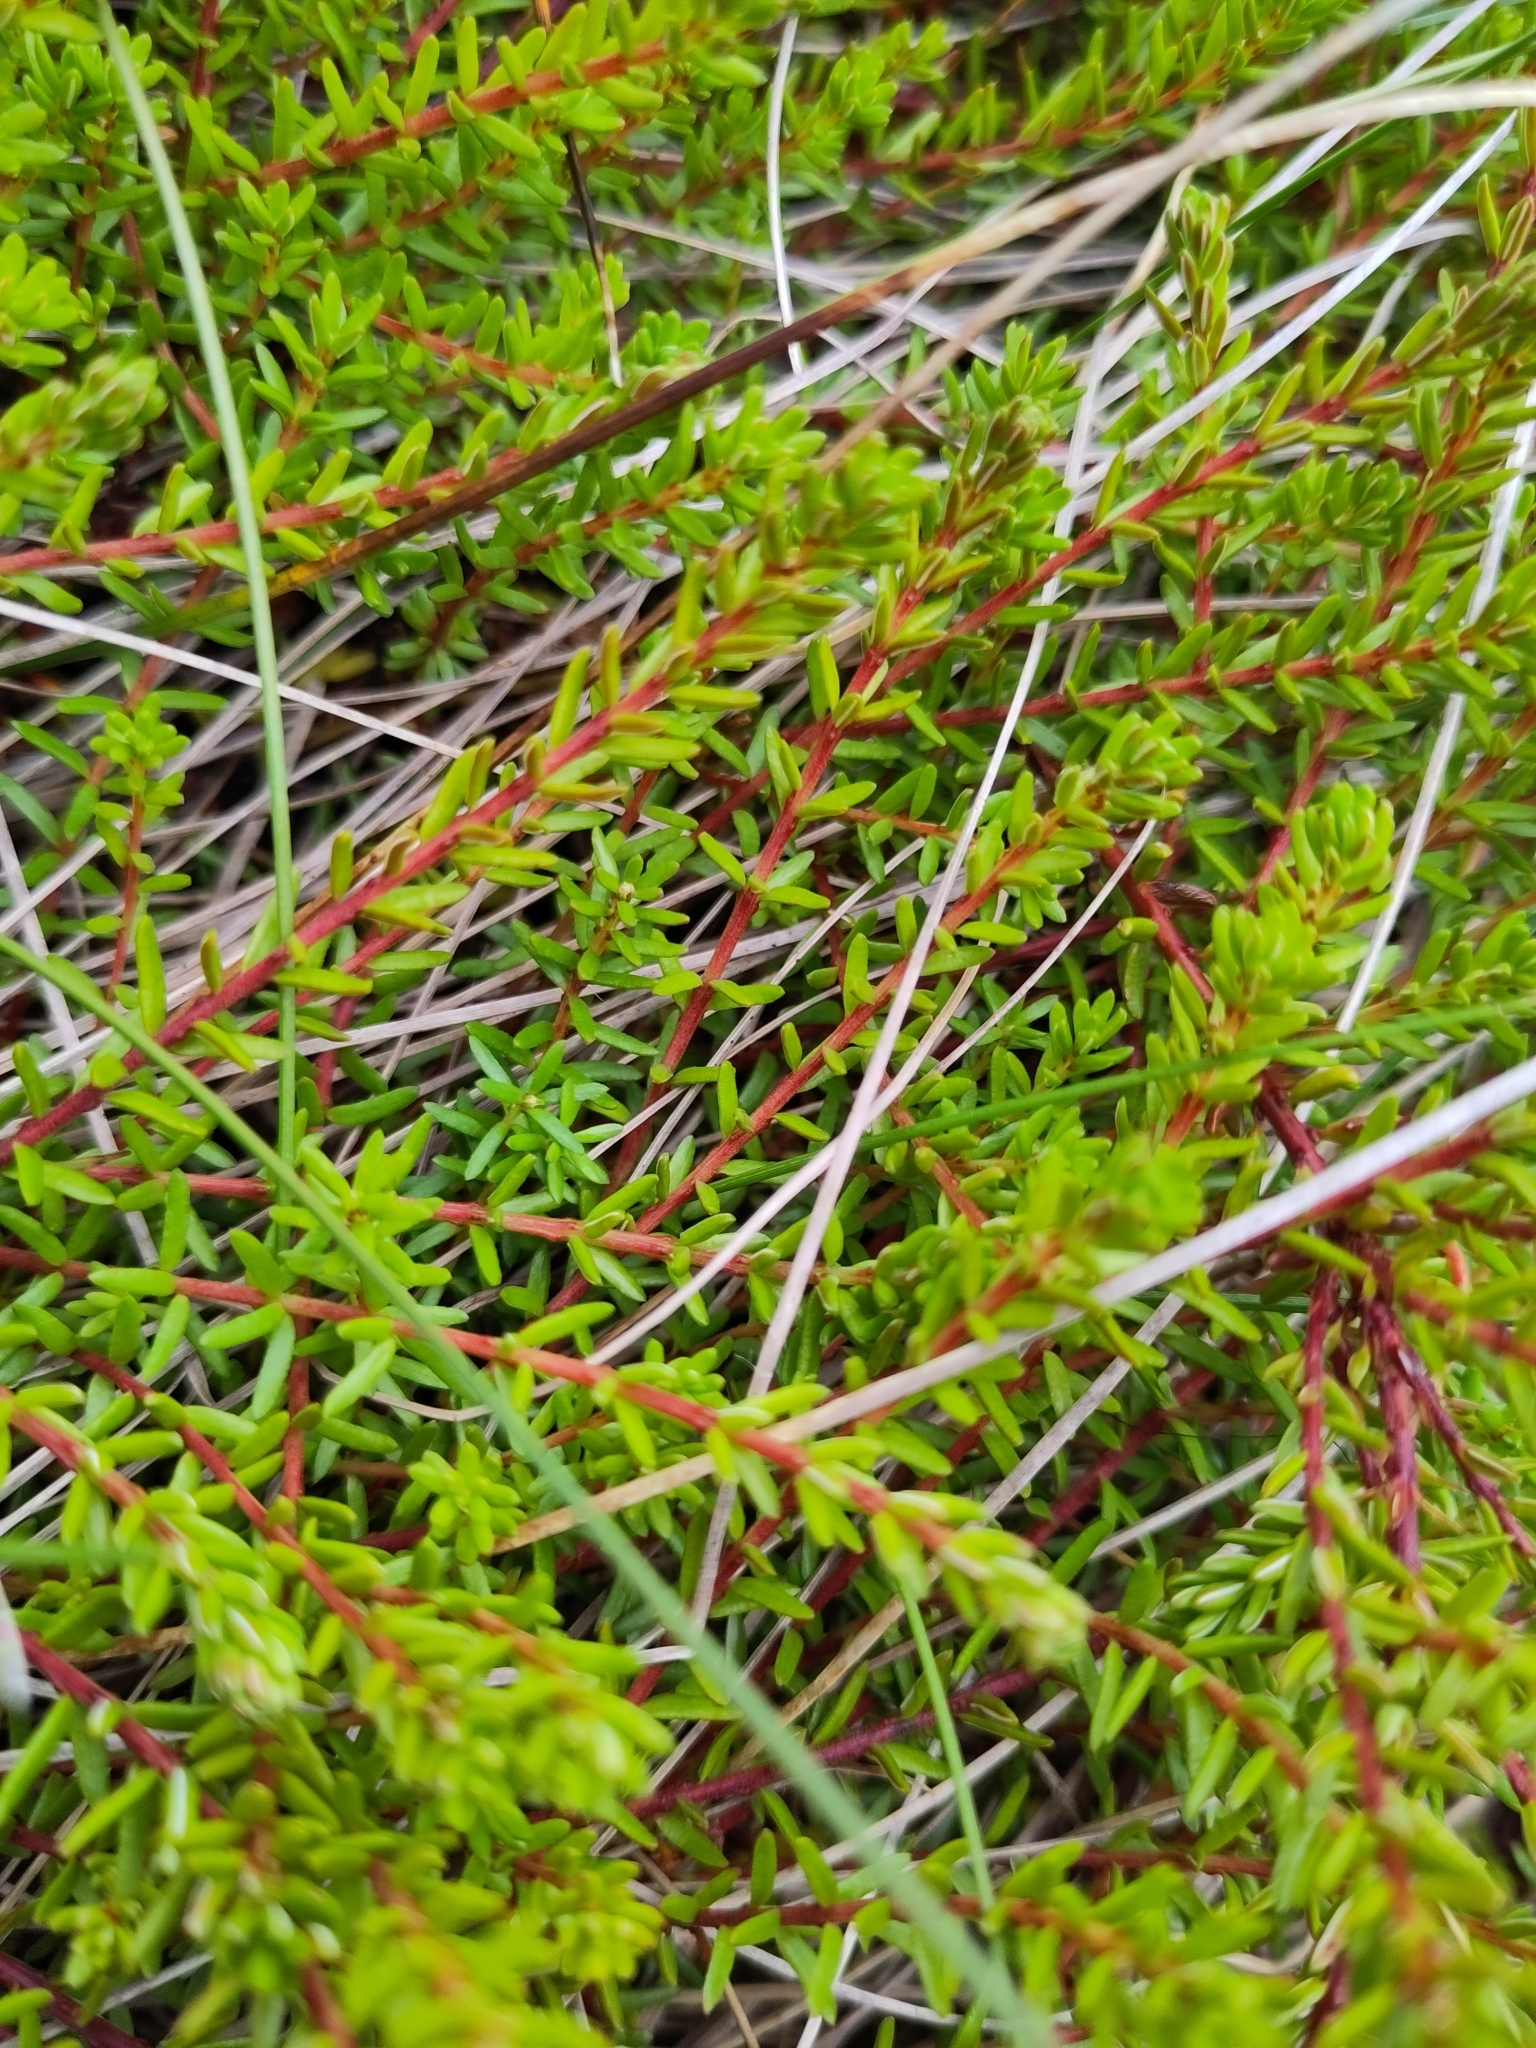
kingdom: Plantae
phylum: Tracheophyta
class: Magnoliopsida
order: Ericales
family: Ericaceae
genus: Empetrum
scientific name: Empetrum nigrum
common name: Black crowberry
